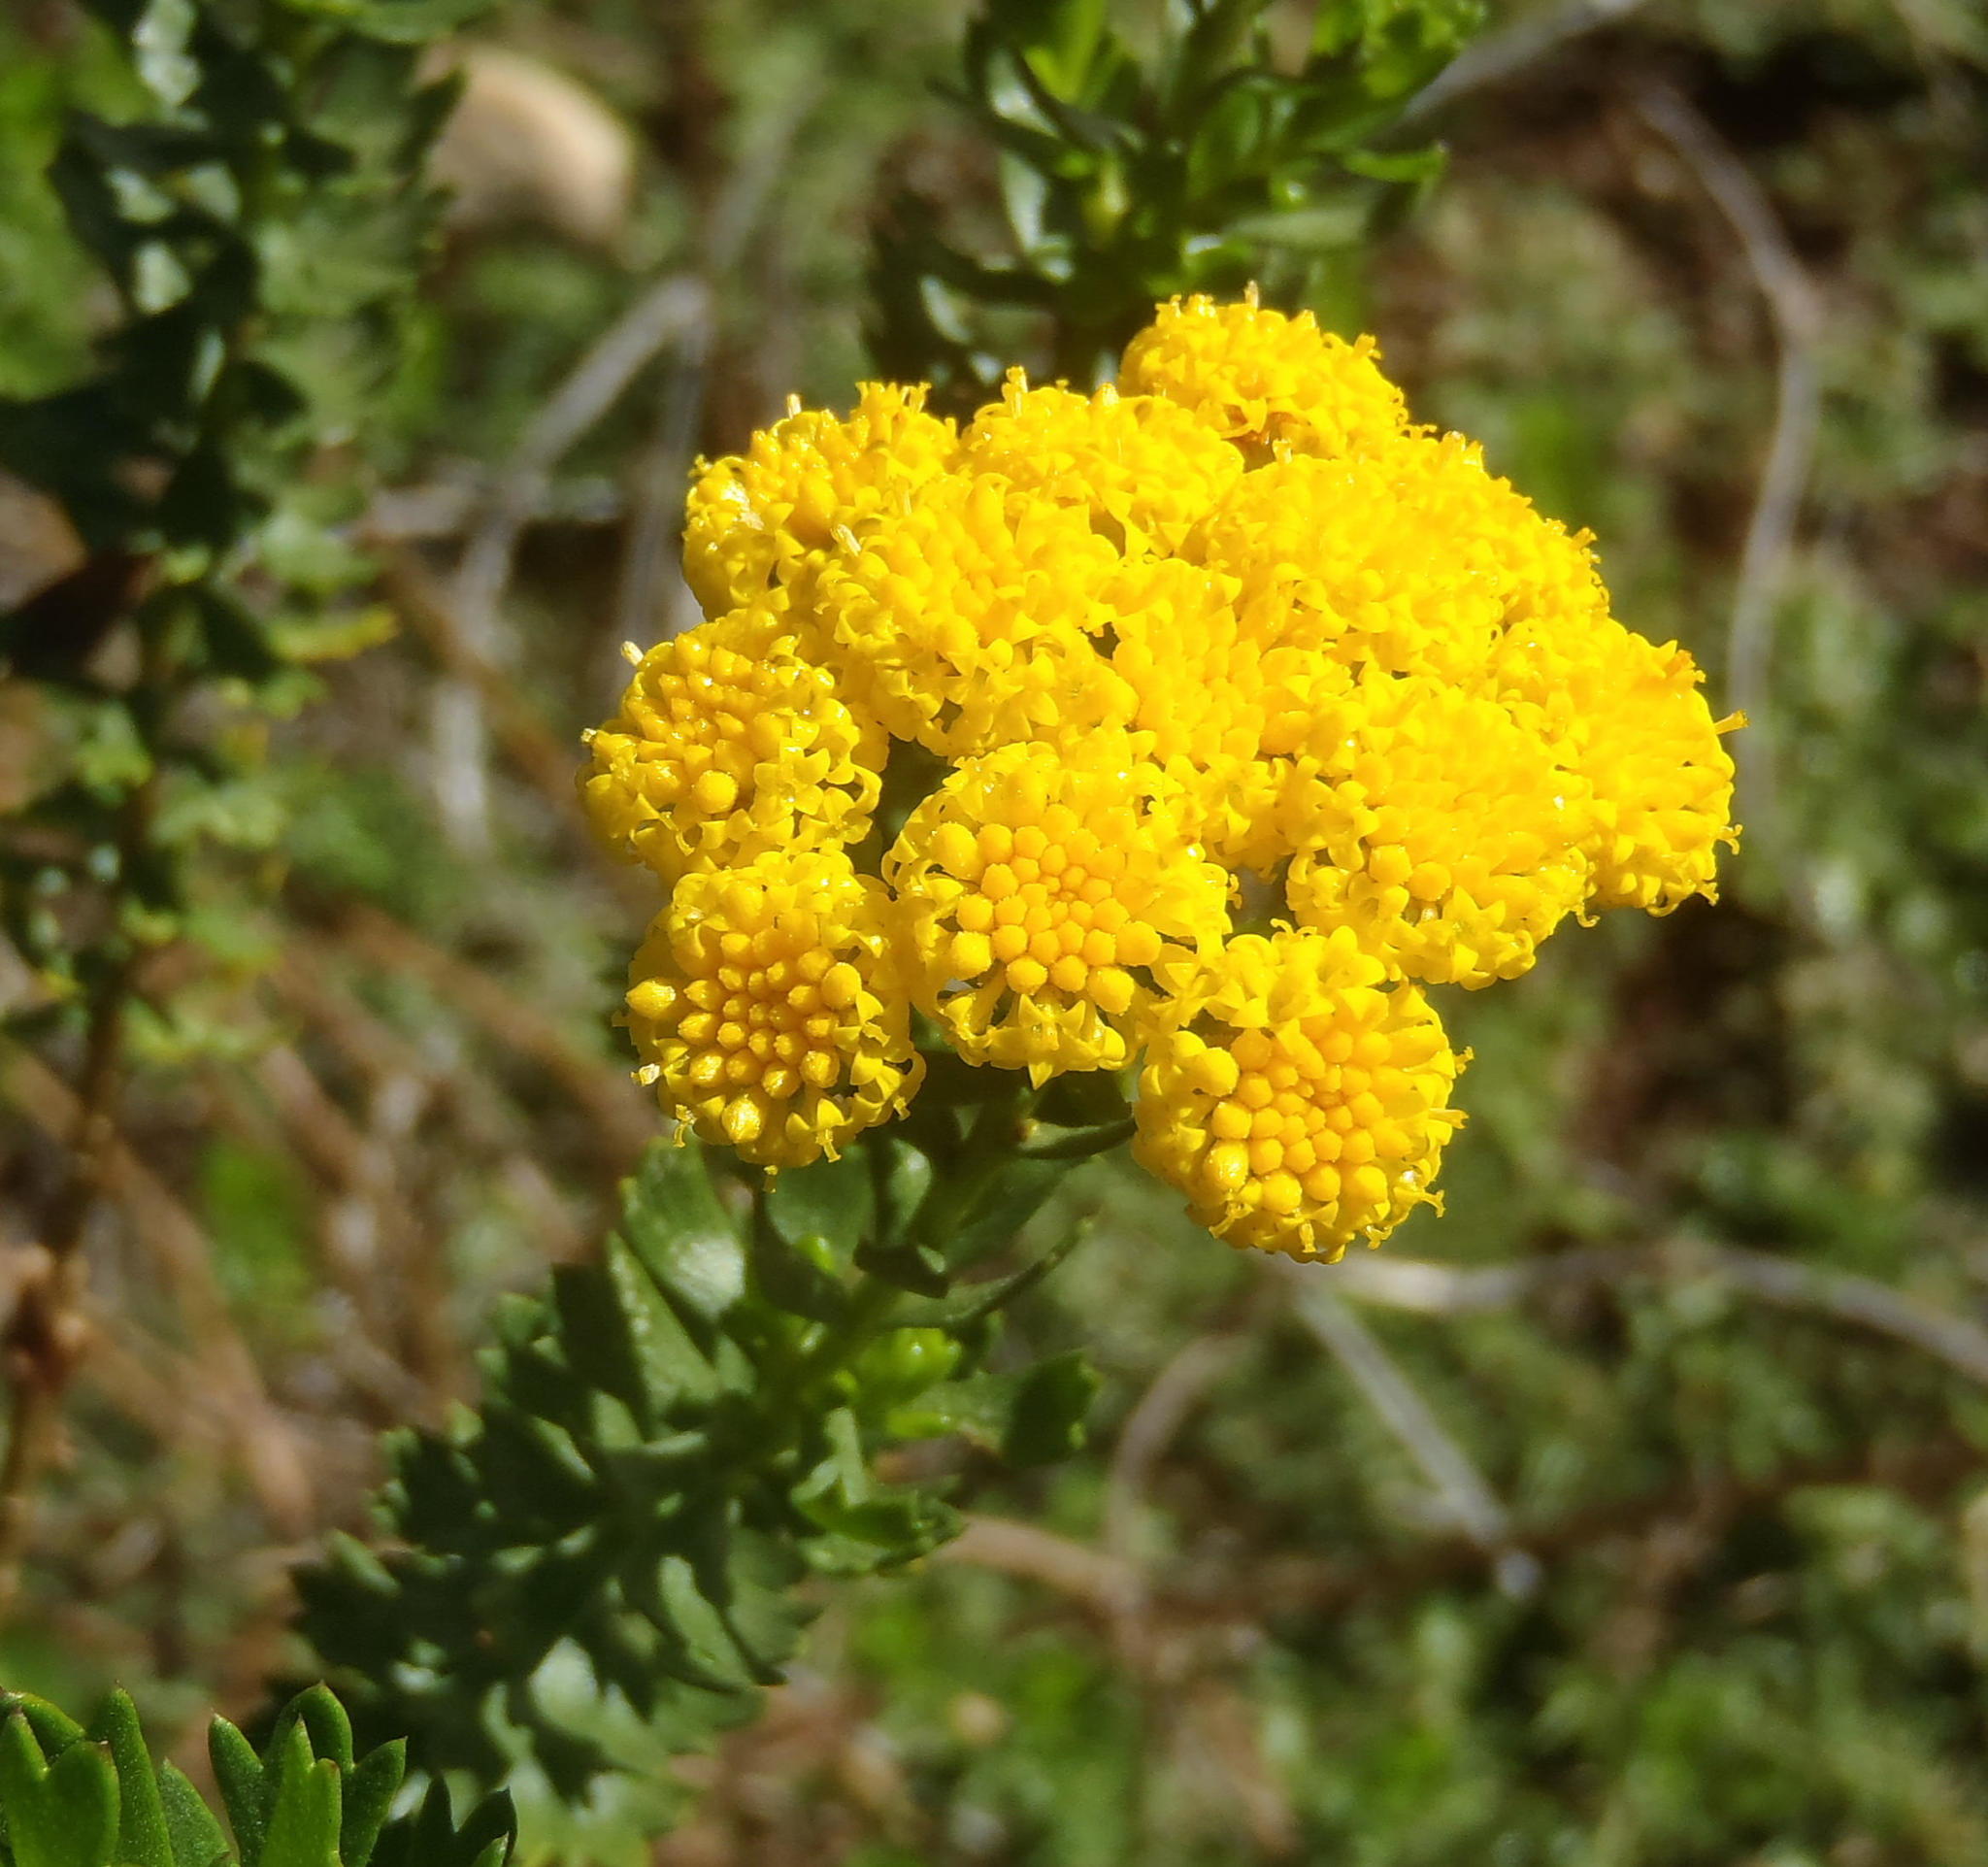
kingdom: Plantae
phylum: Tracheophyta
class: Magnoliopsida
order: Asterales
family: Asteraceae
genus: Athanasia
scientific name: Athanasia trifurcata
